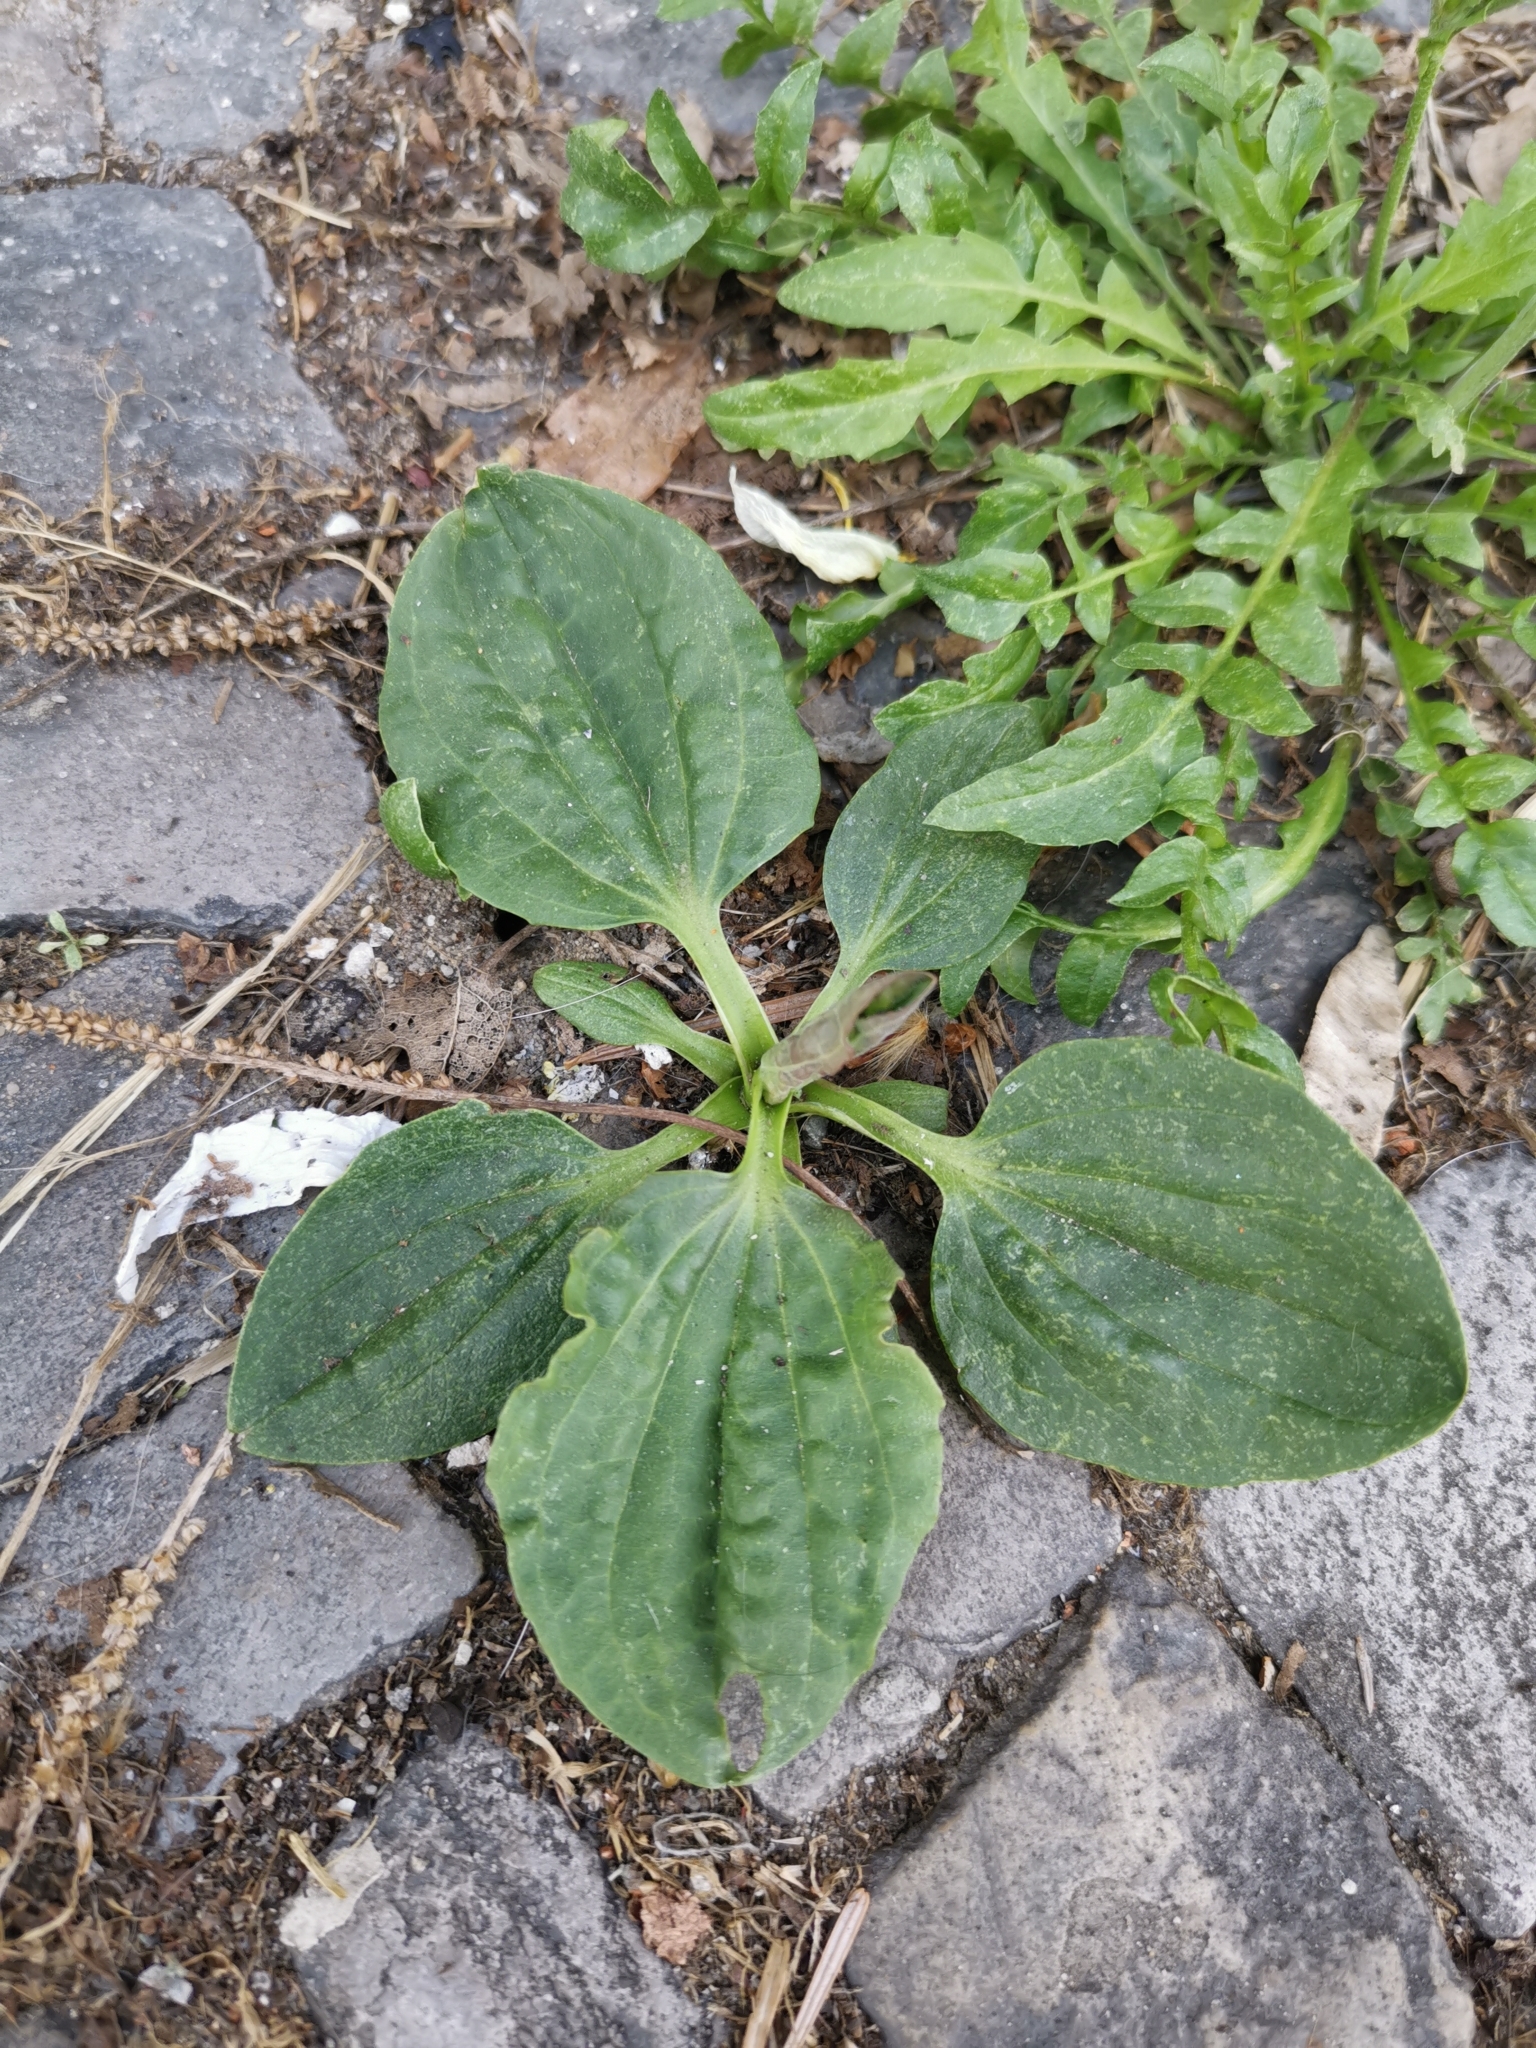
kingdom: Plantae
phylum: Tracheophyta
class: Magnoliopsida
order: Lamiales
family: Plantaginaceae
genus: Plantago
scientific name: Plantago major
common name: Common plantain
